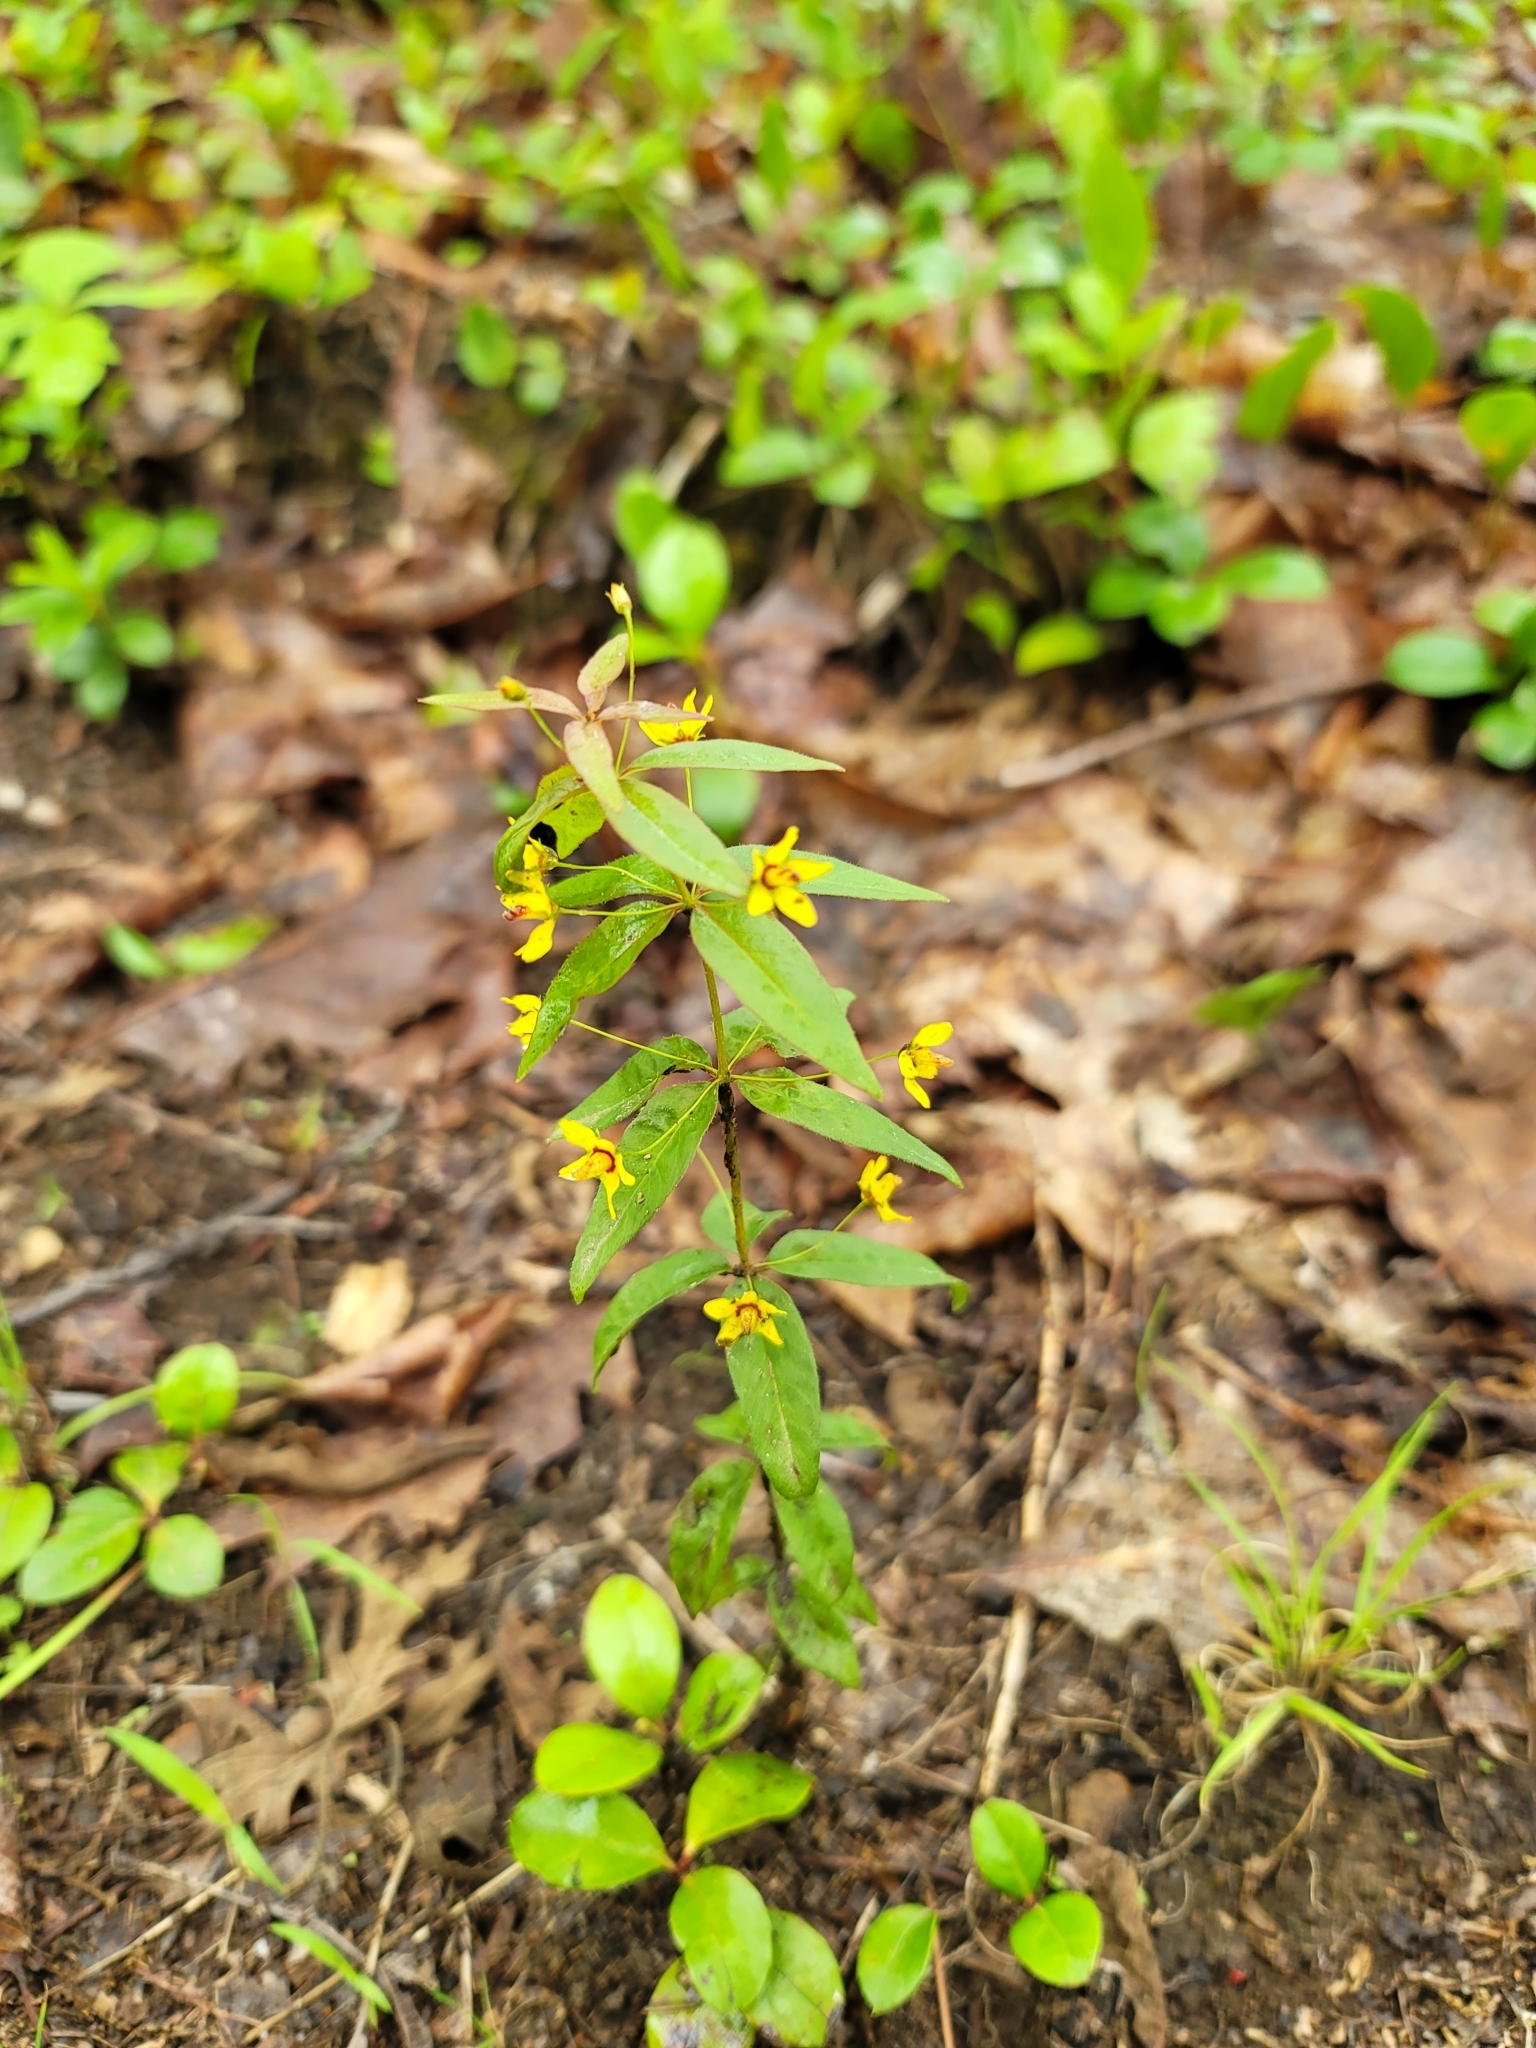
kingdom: Plantae
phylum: Tracheophyta
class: Magnoliopsida
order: Ericales
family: Primulaceae
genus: Lysimachia
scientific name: Lysimachia quadrifolia
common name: Whorled loosestrife
